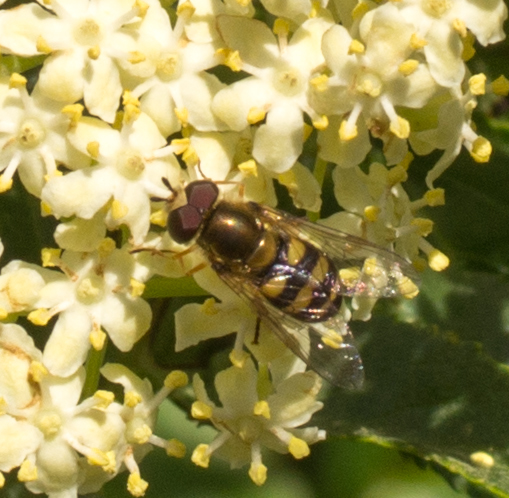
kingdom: Animalia
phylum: Arthropoda
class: Insecta
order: Diptera
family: Syrphidae
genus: Eupeodes
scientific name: Eupeodes fumipennis
